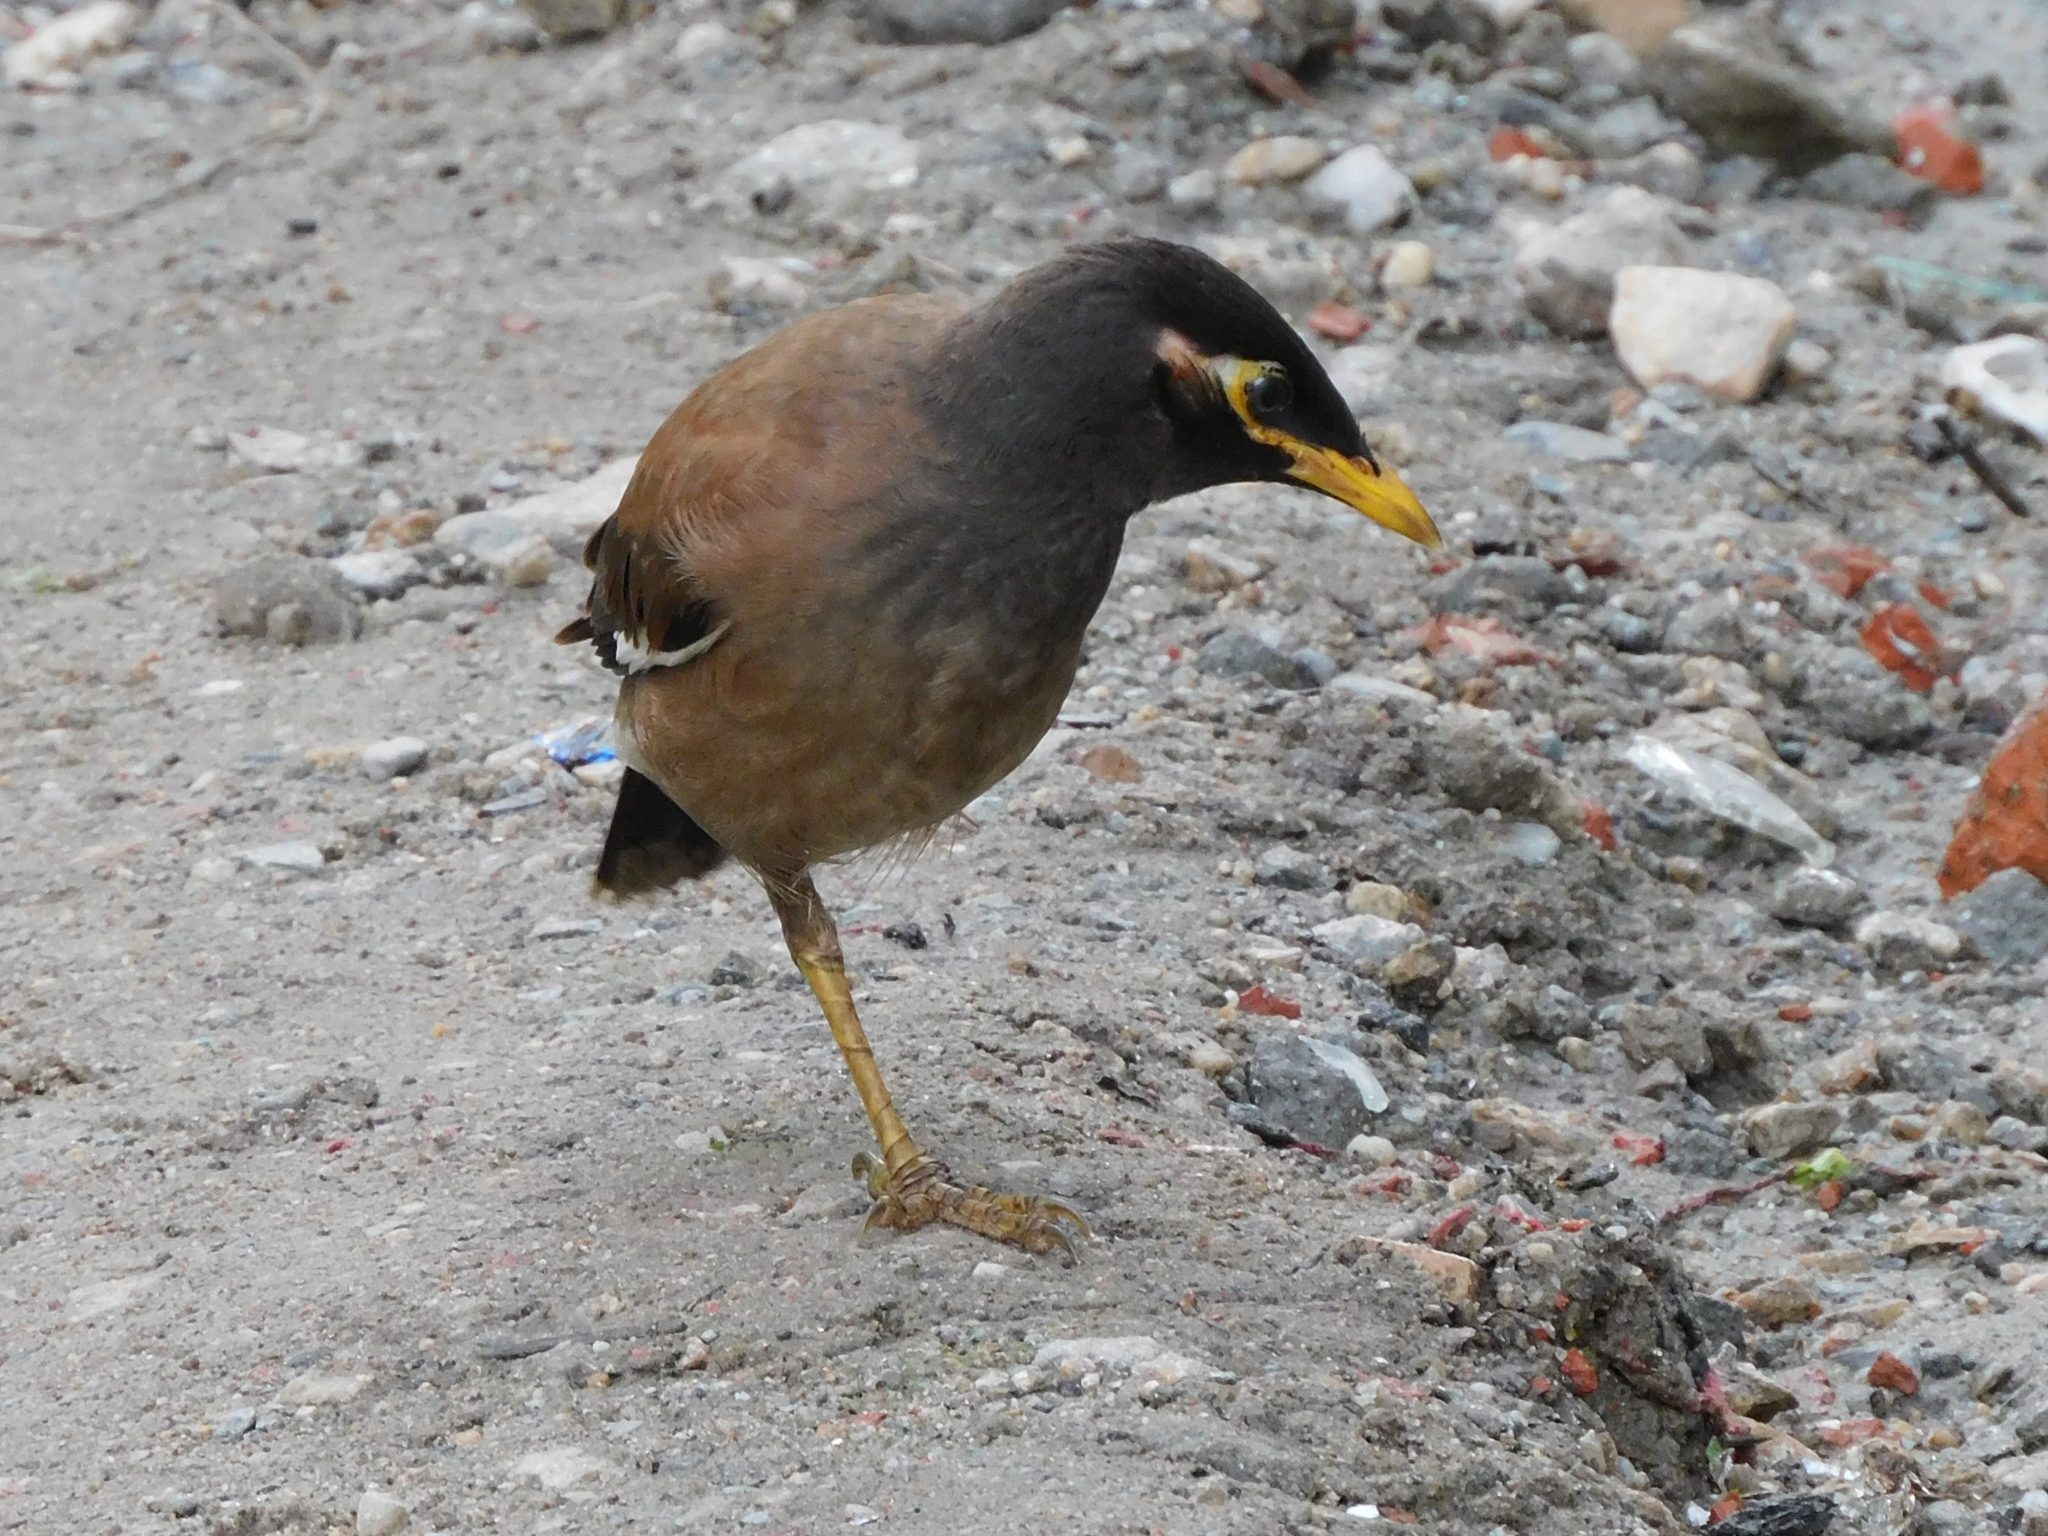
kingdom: Animalia
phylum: Chordata
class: Aves
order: Passeriformes
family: Sturnidae
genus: Acridotheres
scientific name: Acridotheres tristis
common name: Common myna
